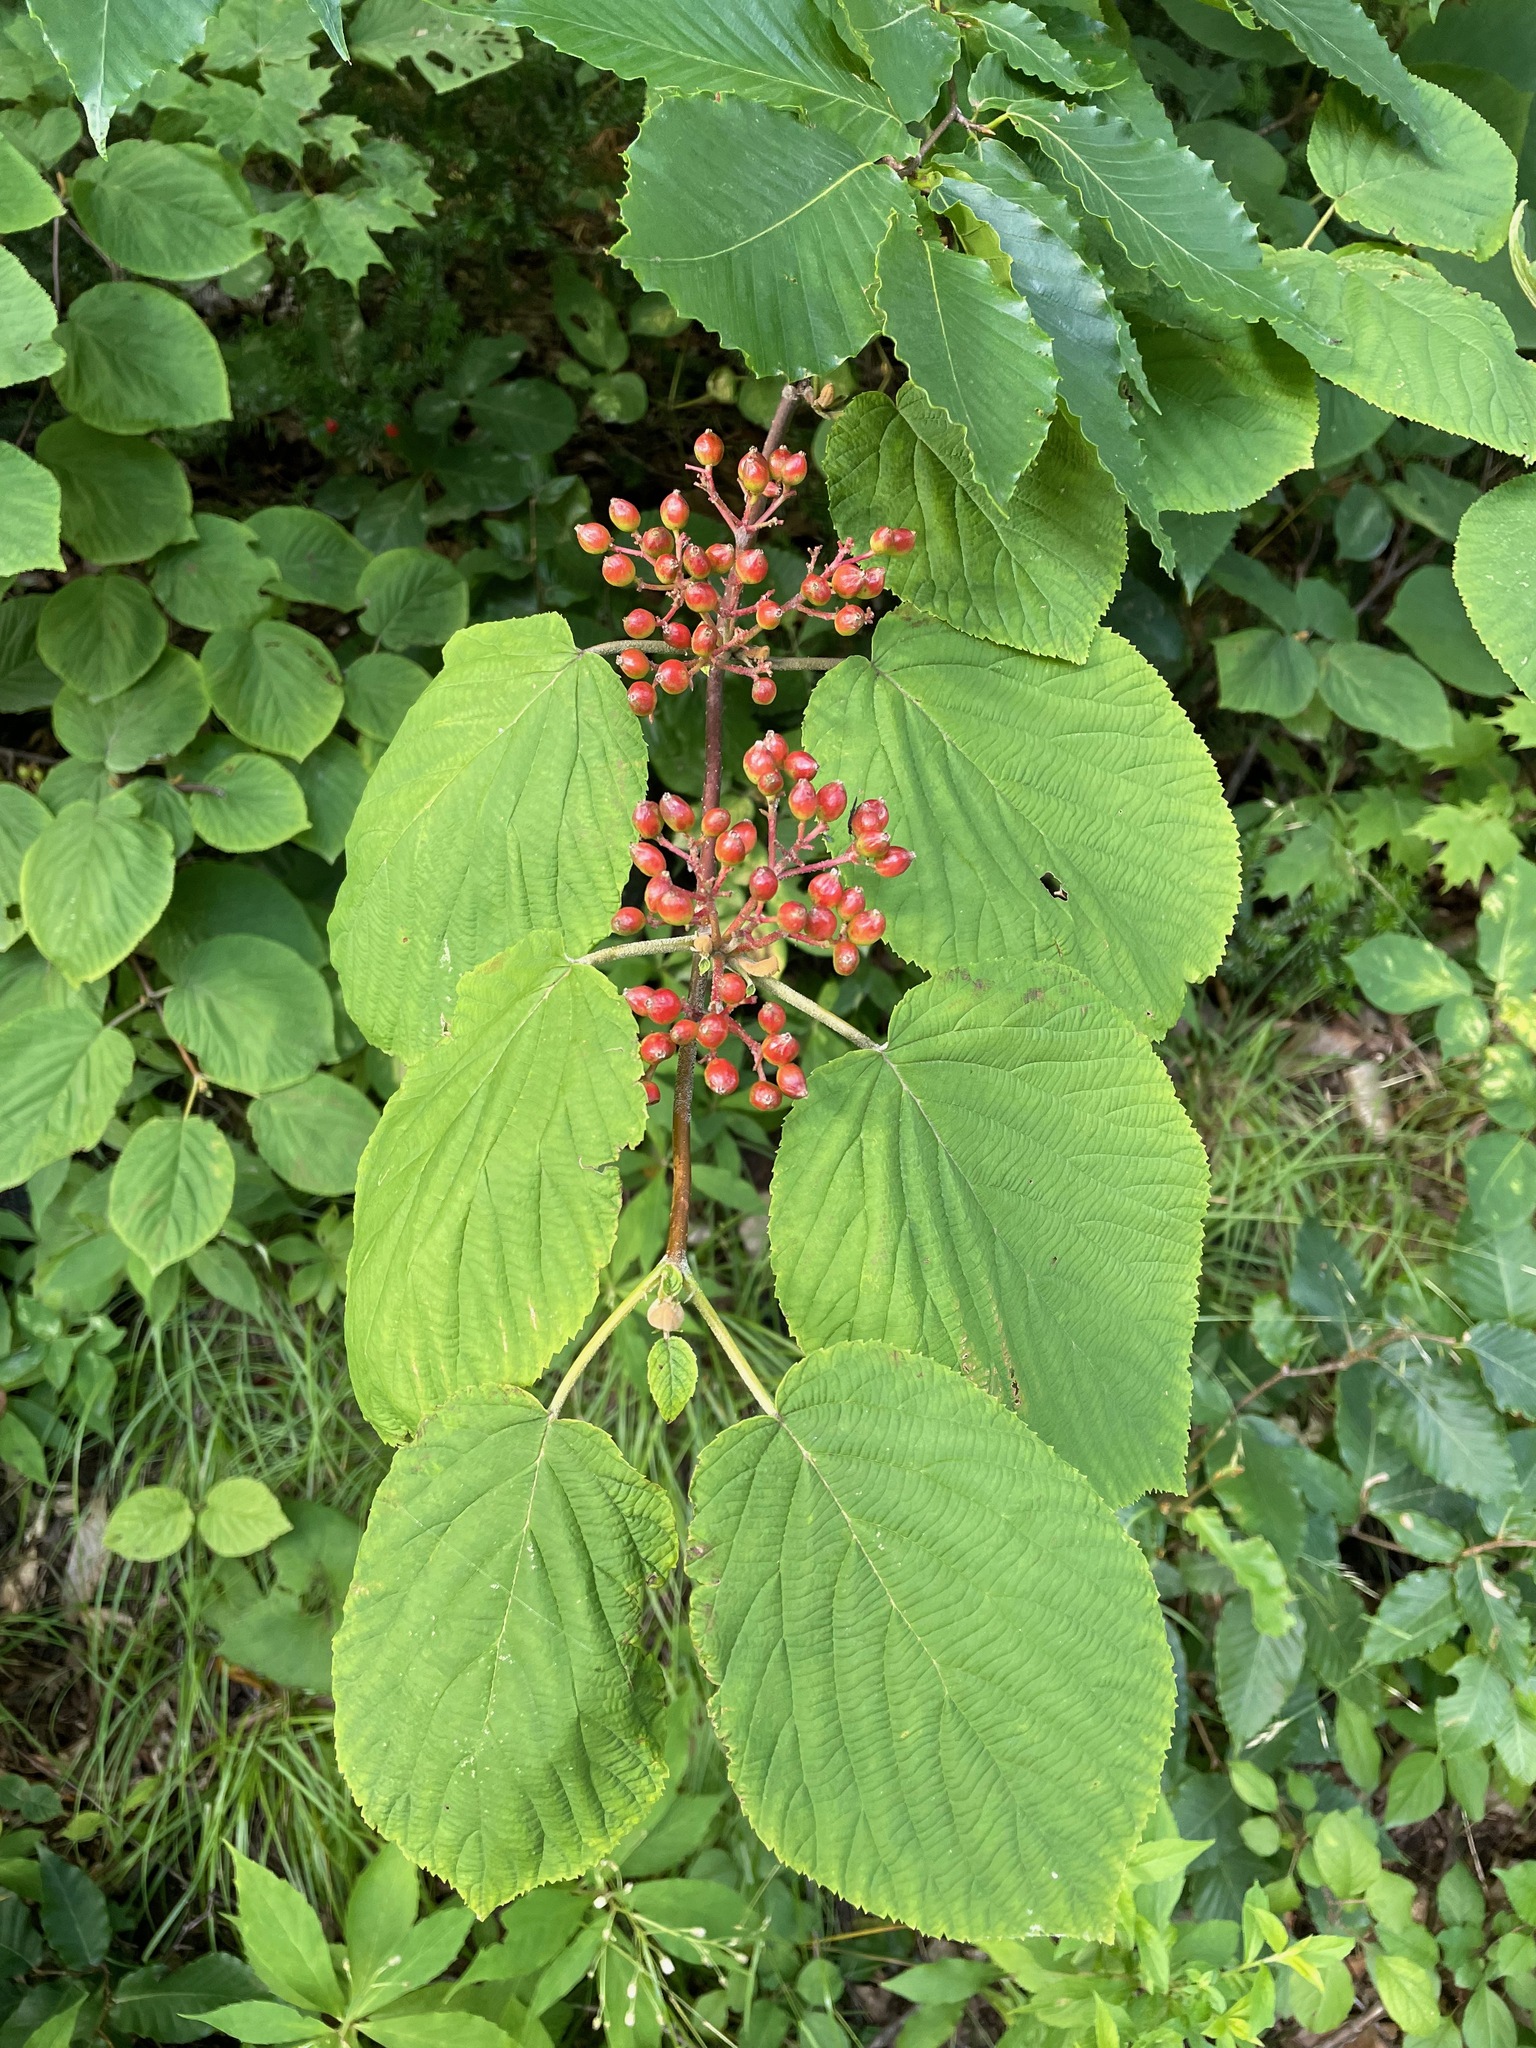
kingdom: Plantae
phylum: Tracheophyta
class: Magnoliopsida
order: Dipsacales
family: Viburnaceae
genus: Viburnum
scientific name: Viburnum lantanoides
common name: Hobblebush
